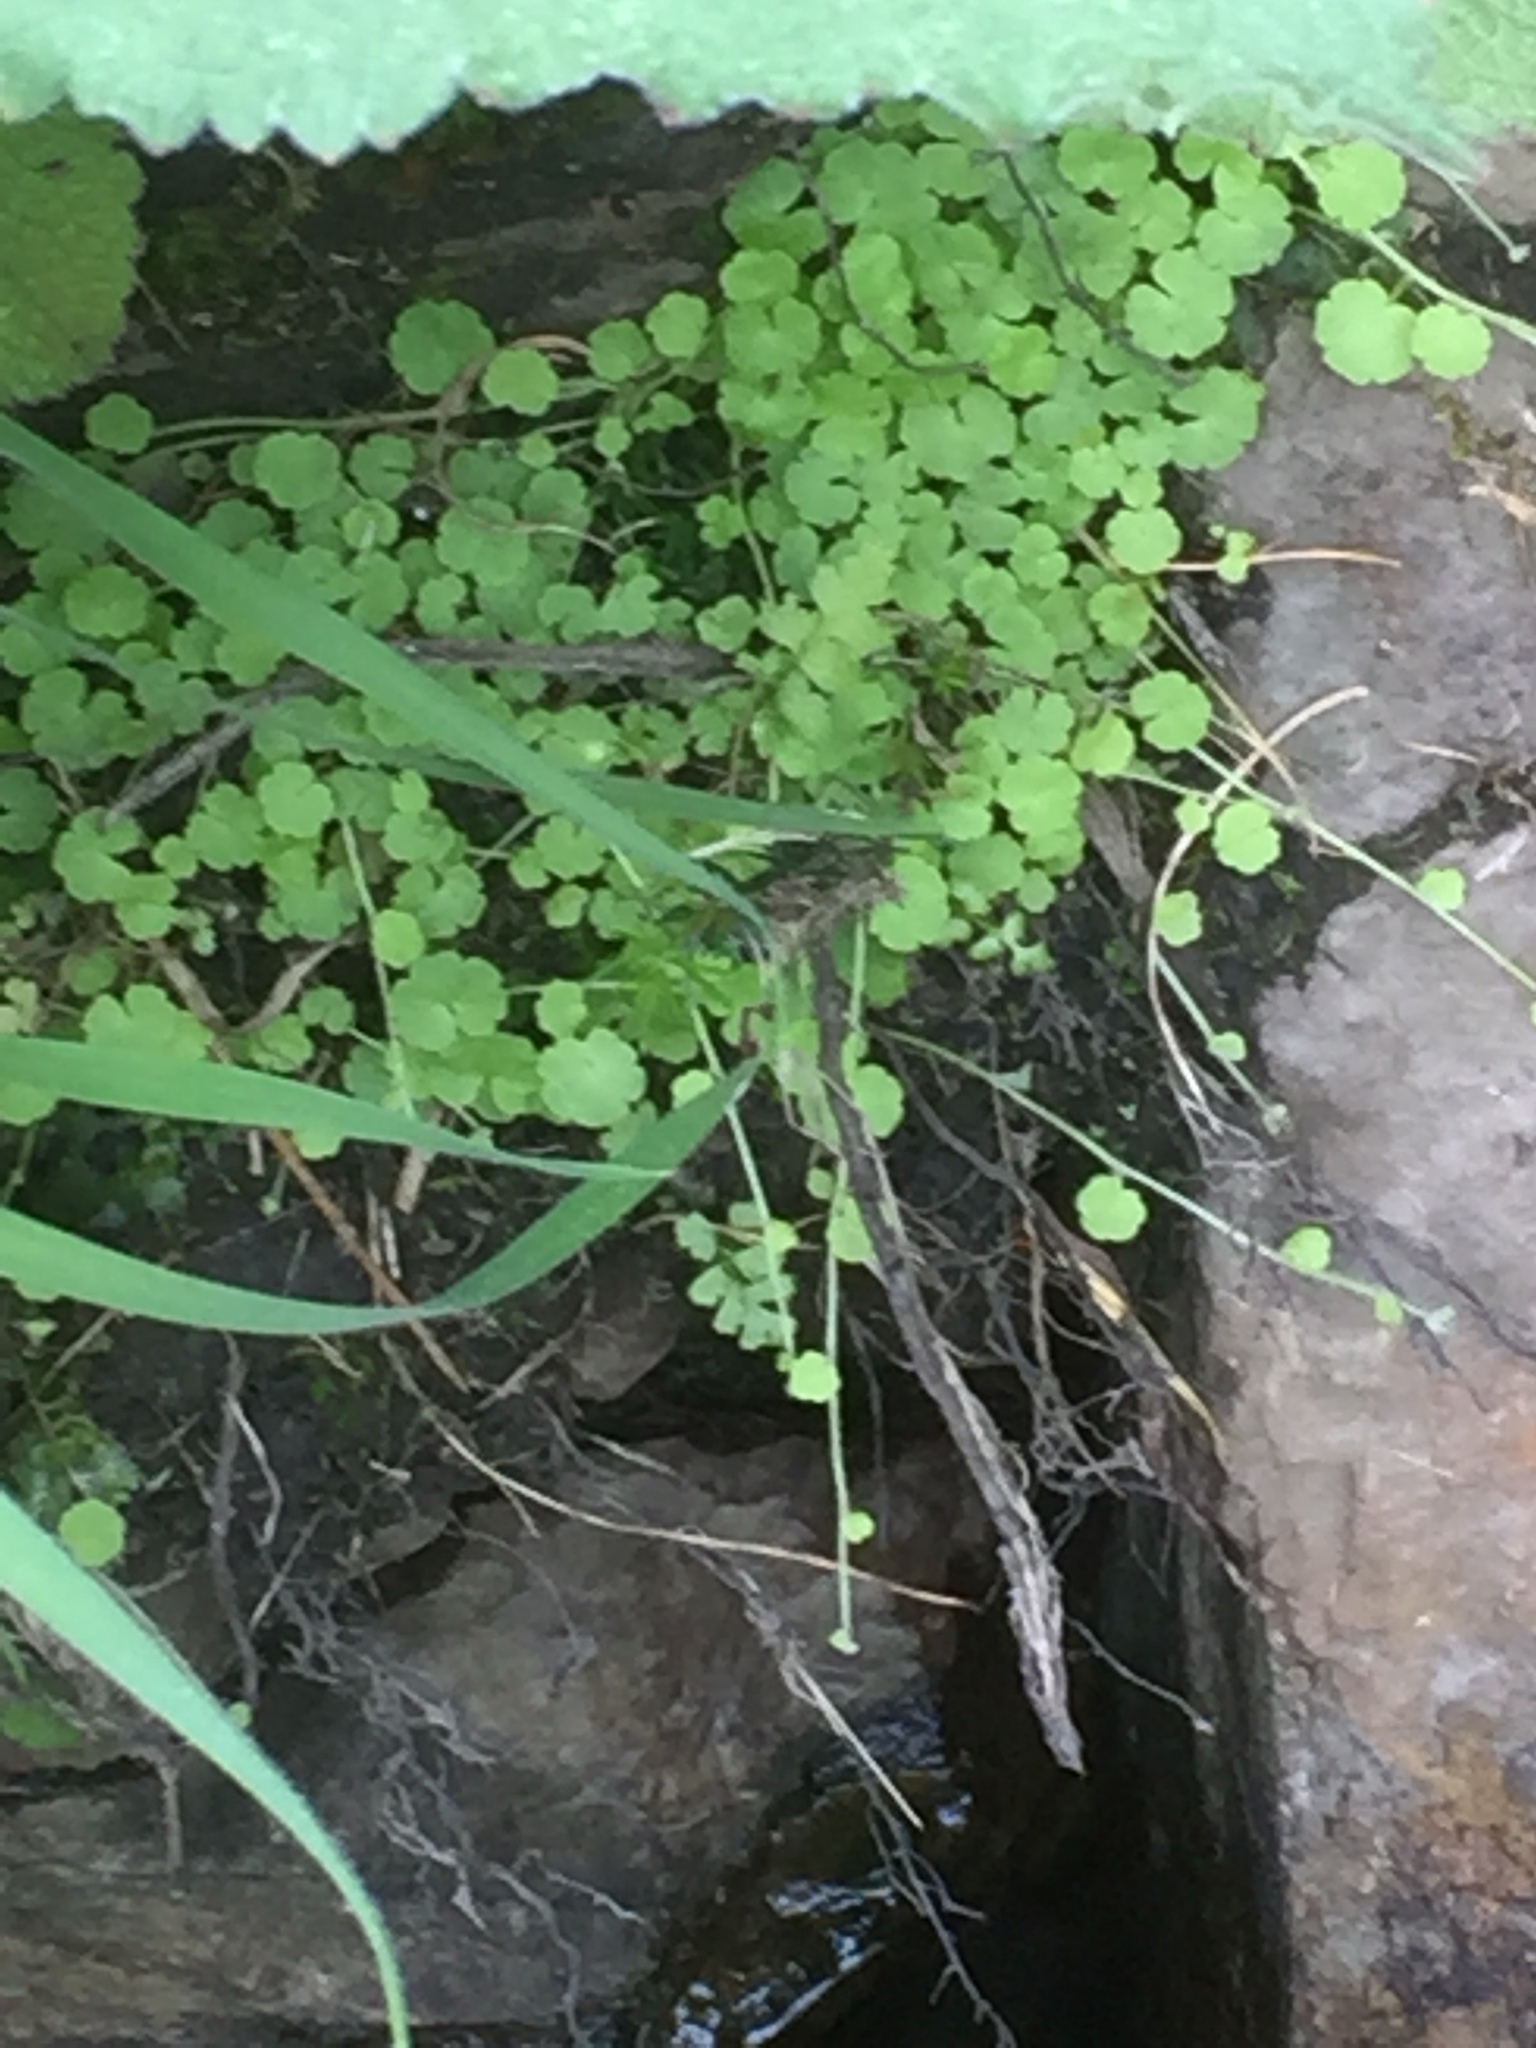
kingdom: Plantae
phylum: Tracheophyta
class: Magnoliopsida
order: Lamiales
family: Plantaginaceae
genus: Sibthorpia
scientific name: Sibthorpia europaea
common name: Cornish moneywort
